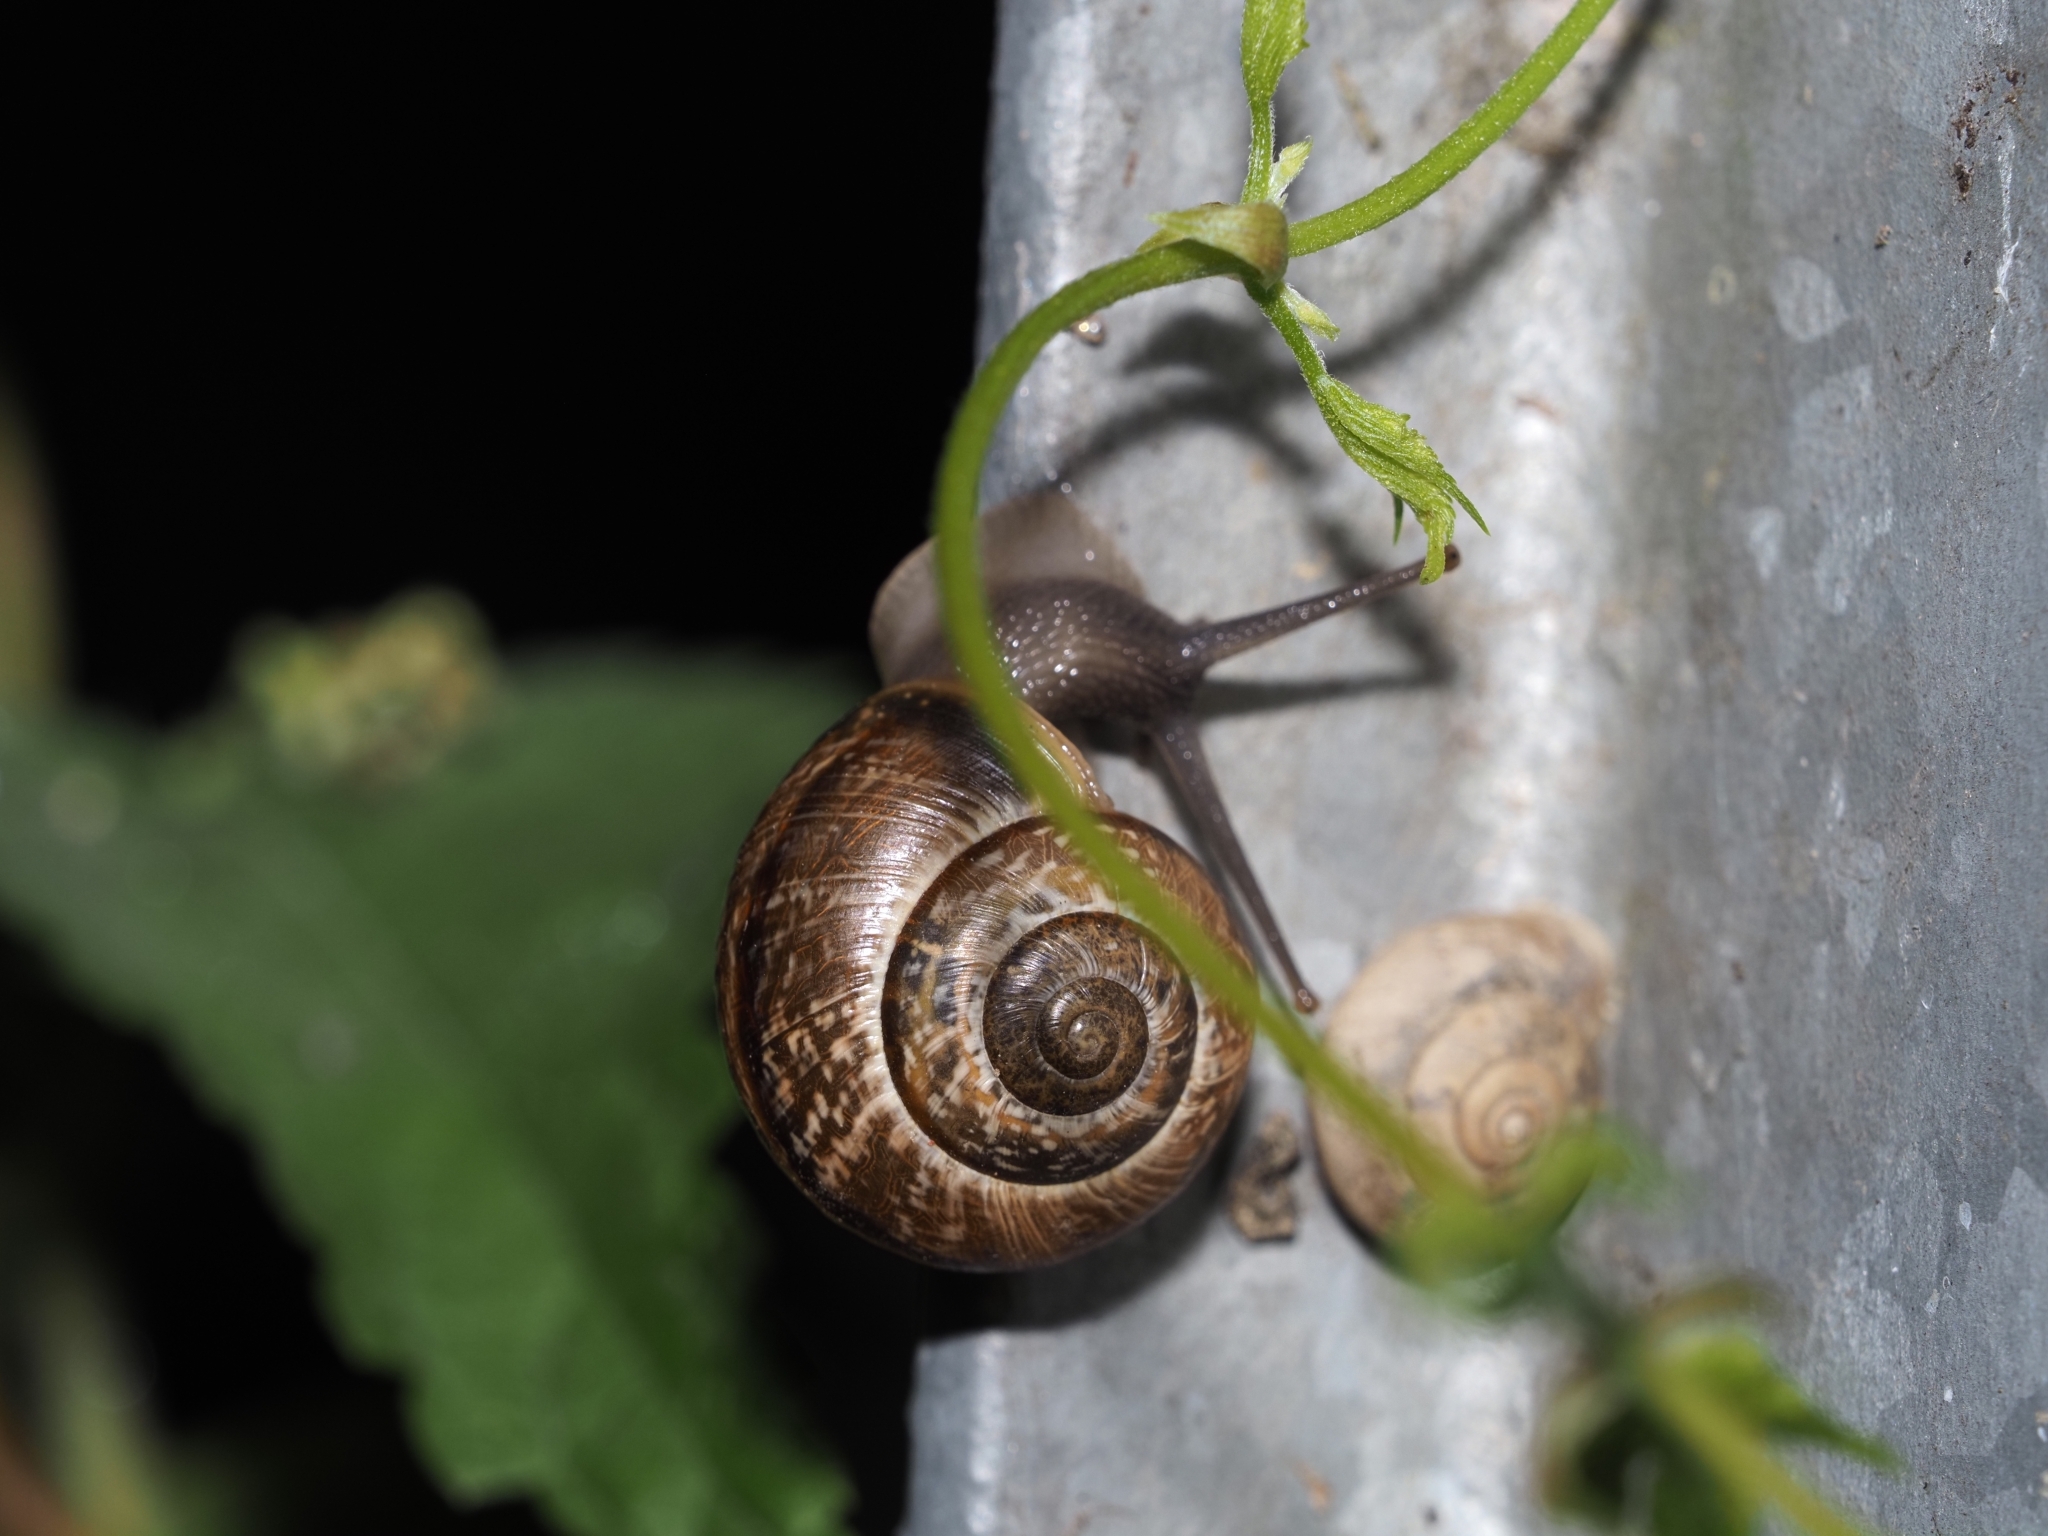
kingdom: Animalia
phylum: Mollusca
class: Gastropoda
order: Stylommatophora
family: Helicidae
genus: Arianta
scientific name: Arianta arbustorum
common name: Copse snail
